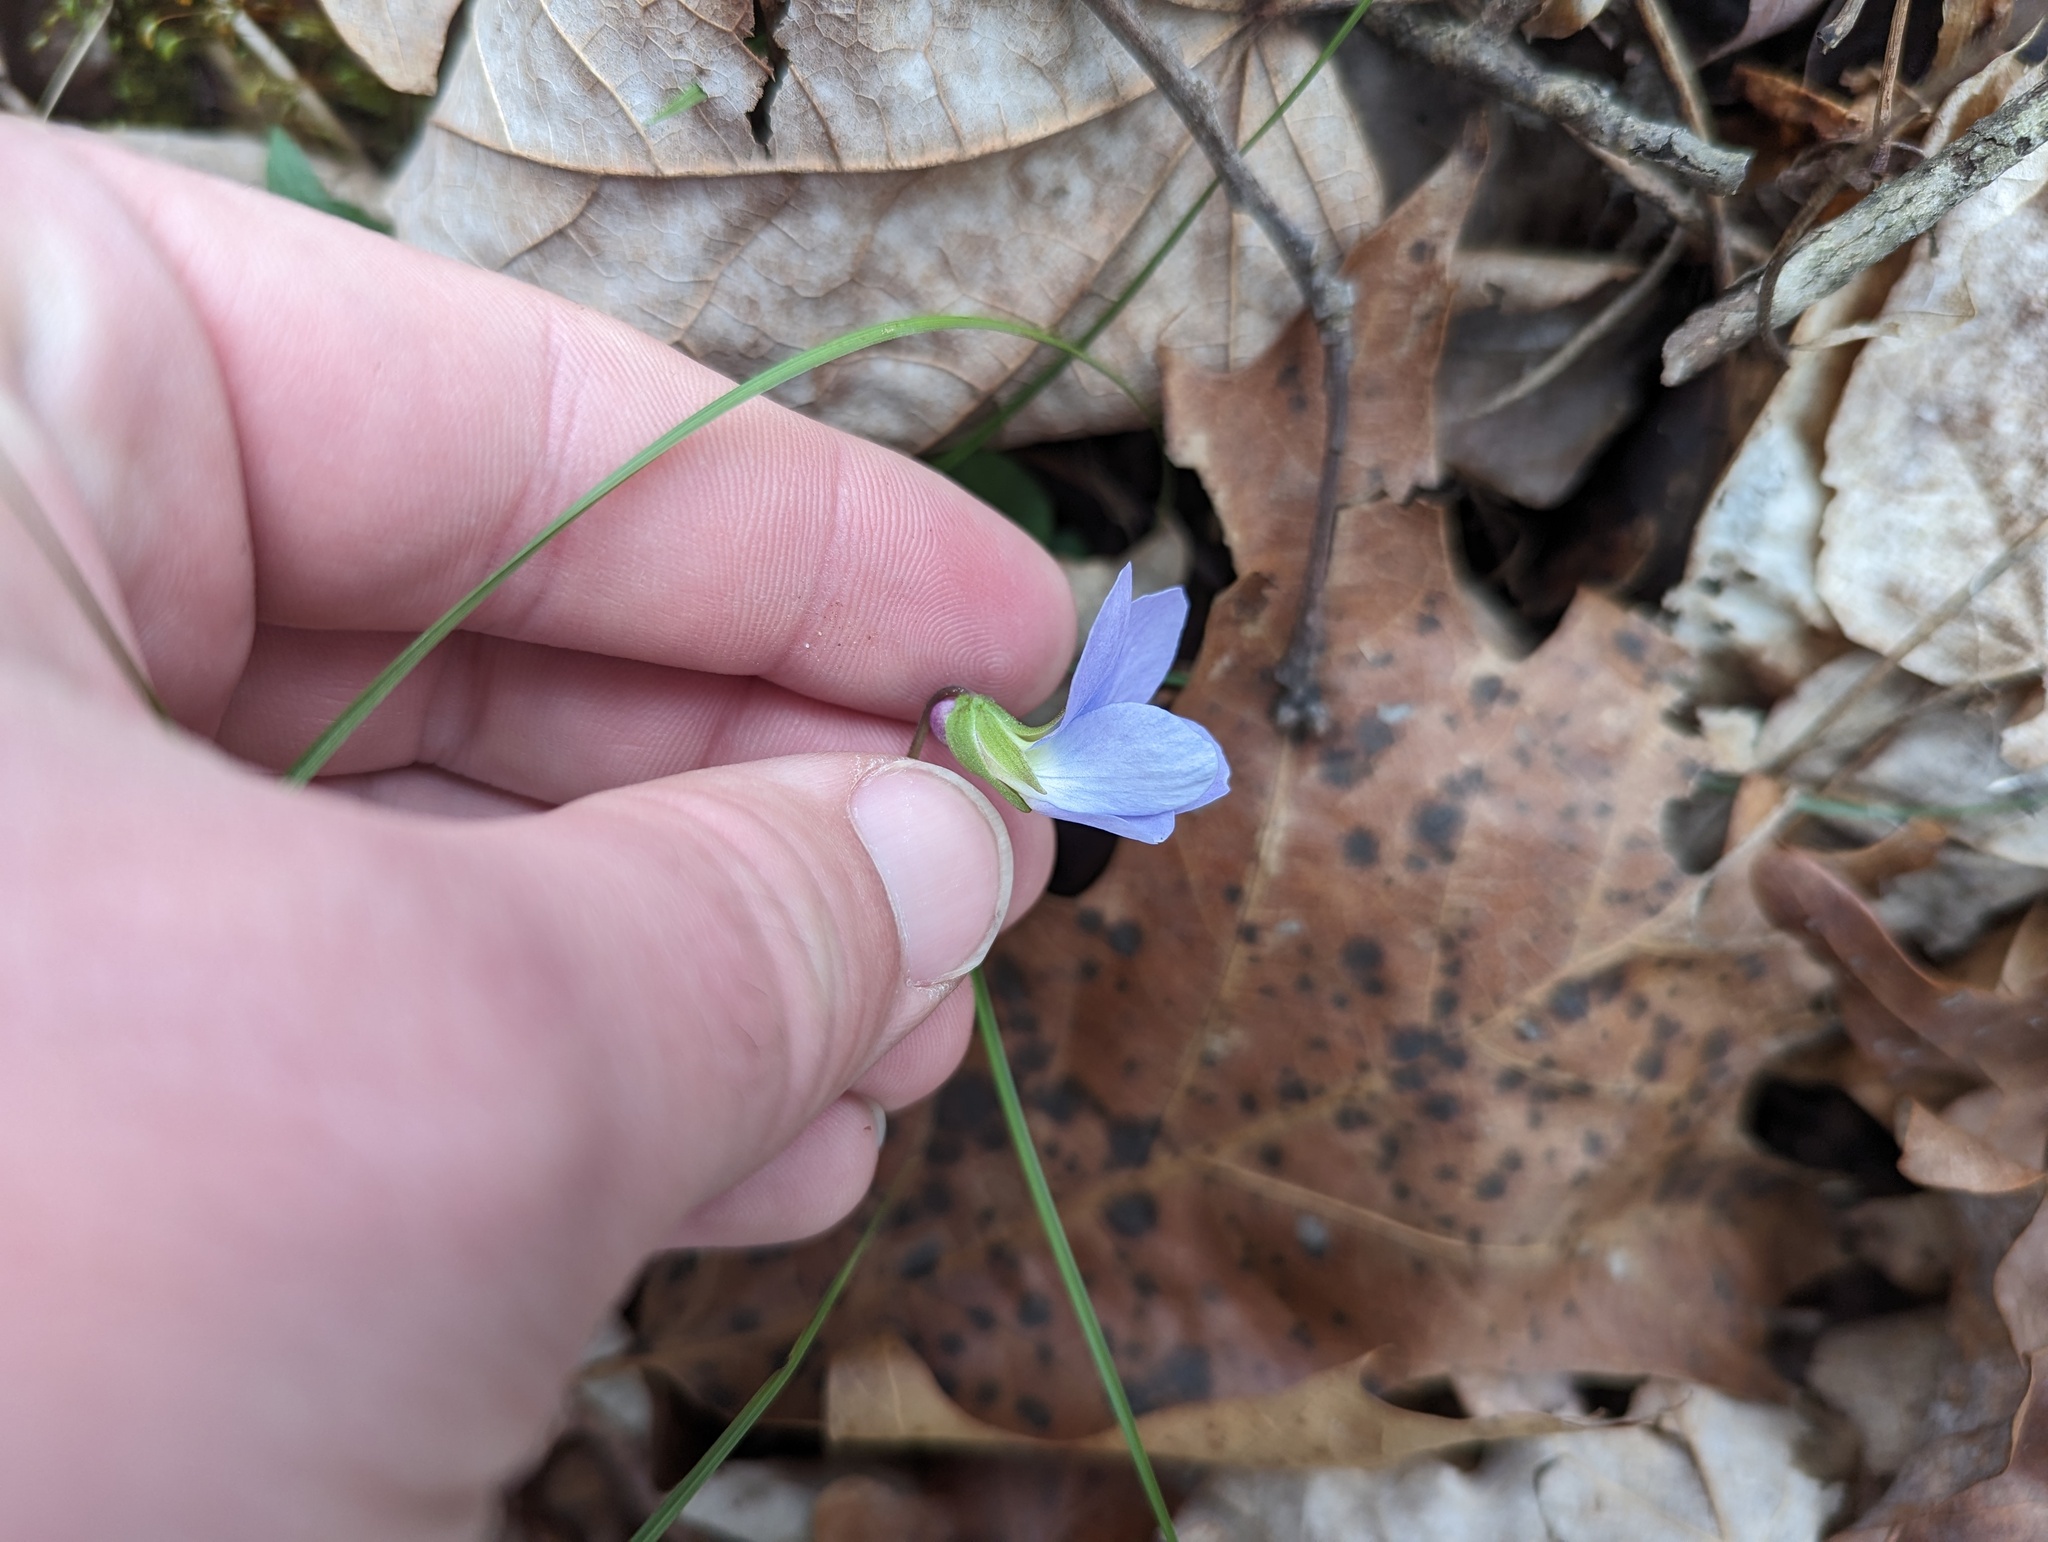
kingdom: Plantae
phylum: Tracheophyta
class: Magnoliopsida
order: Malpighiales
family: Violaceae
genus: Viola
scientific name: Viola missouriensis
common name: Missouri violet
